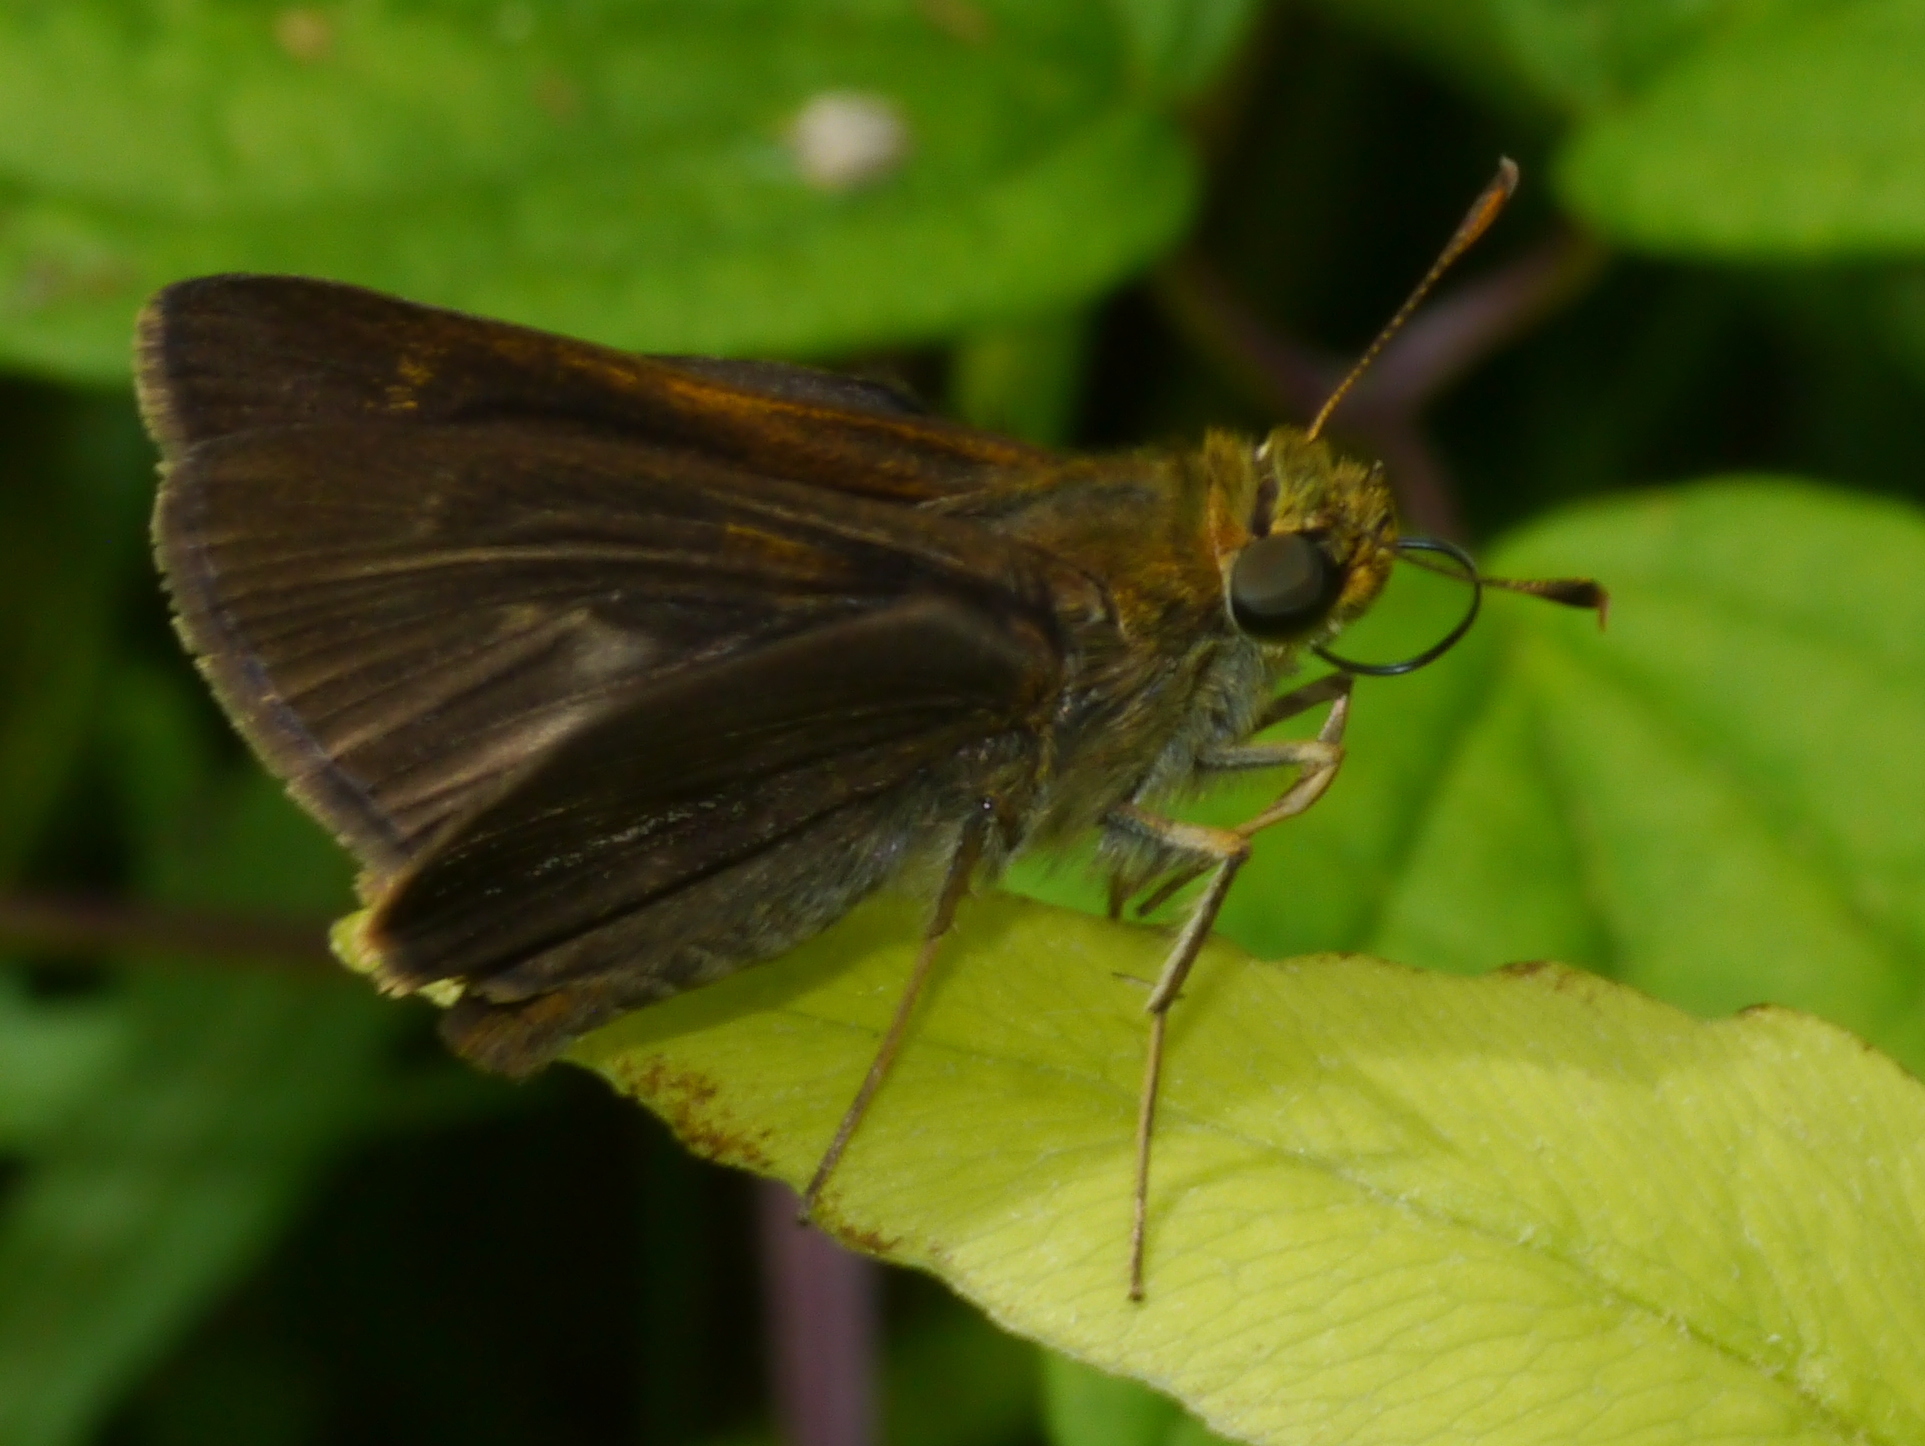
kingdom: Animalia
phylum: Arthropoda
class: Insecta
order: Lepidoptera
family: Hesperiidae
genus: Euphyes
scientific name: Euphyes vestris
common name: Dun skipper
